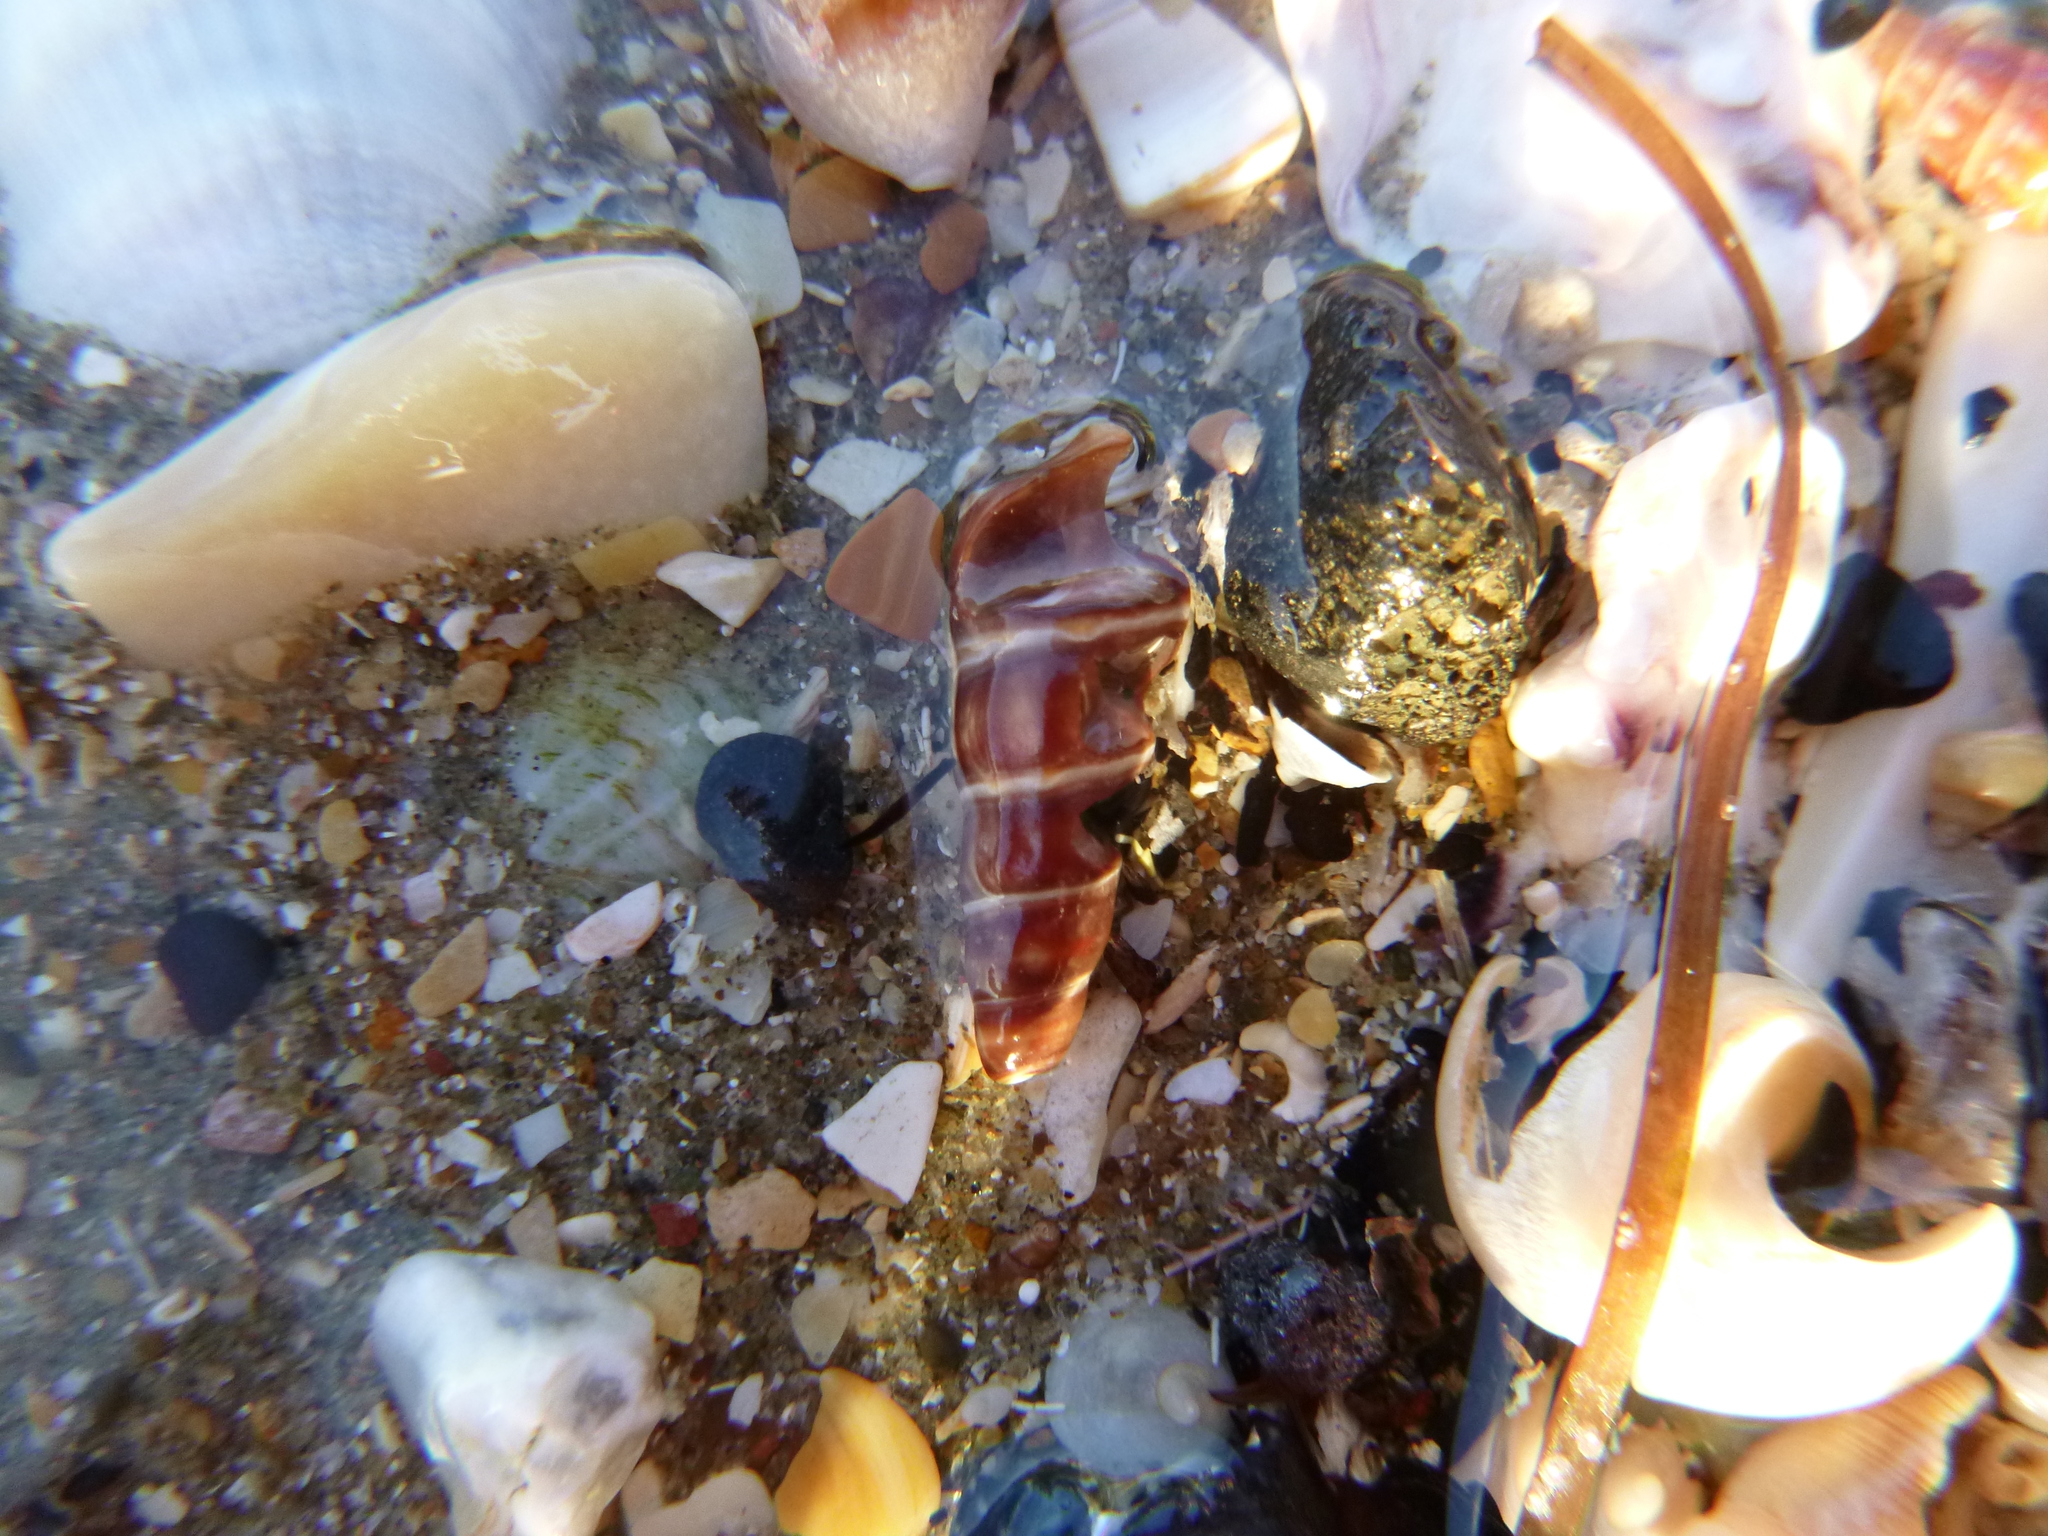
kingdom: Animalia
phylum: Mollusca
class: Gastropoda
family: Batillariidae
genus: Zeacumantus
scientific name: Zeacumantus lutulentus
